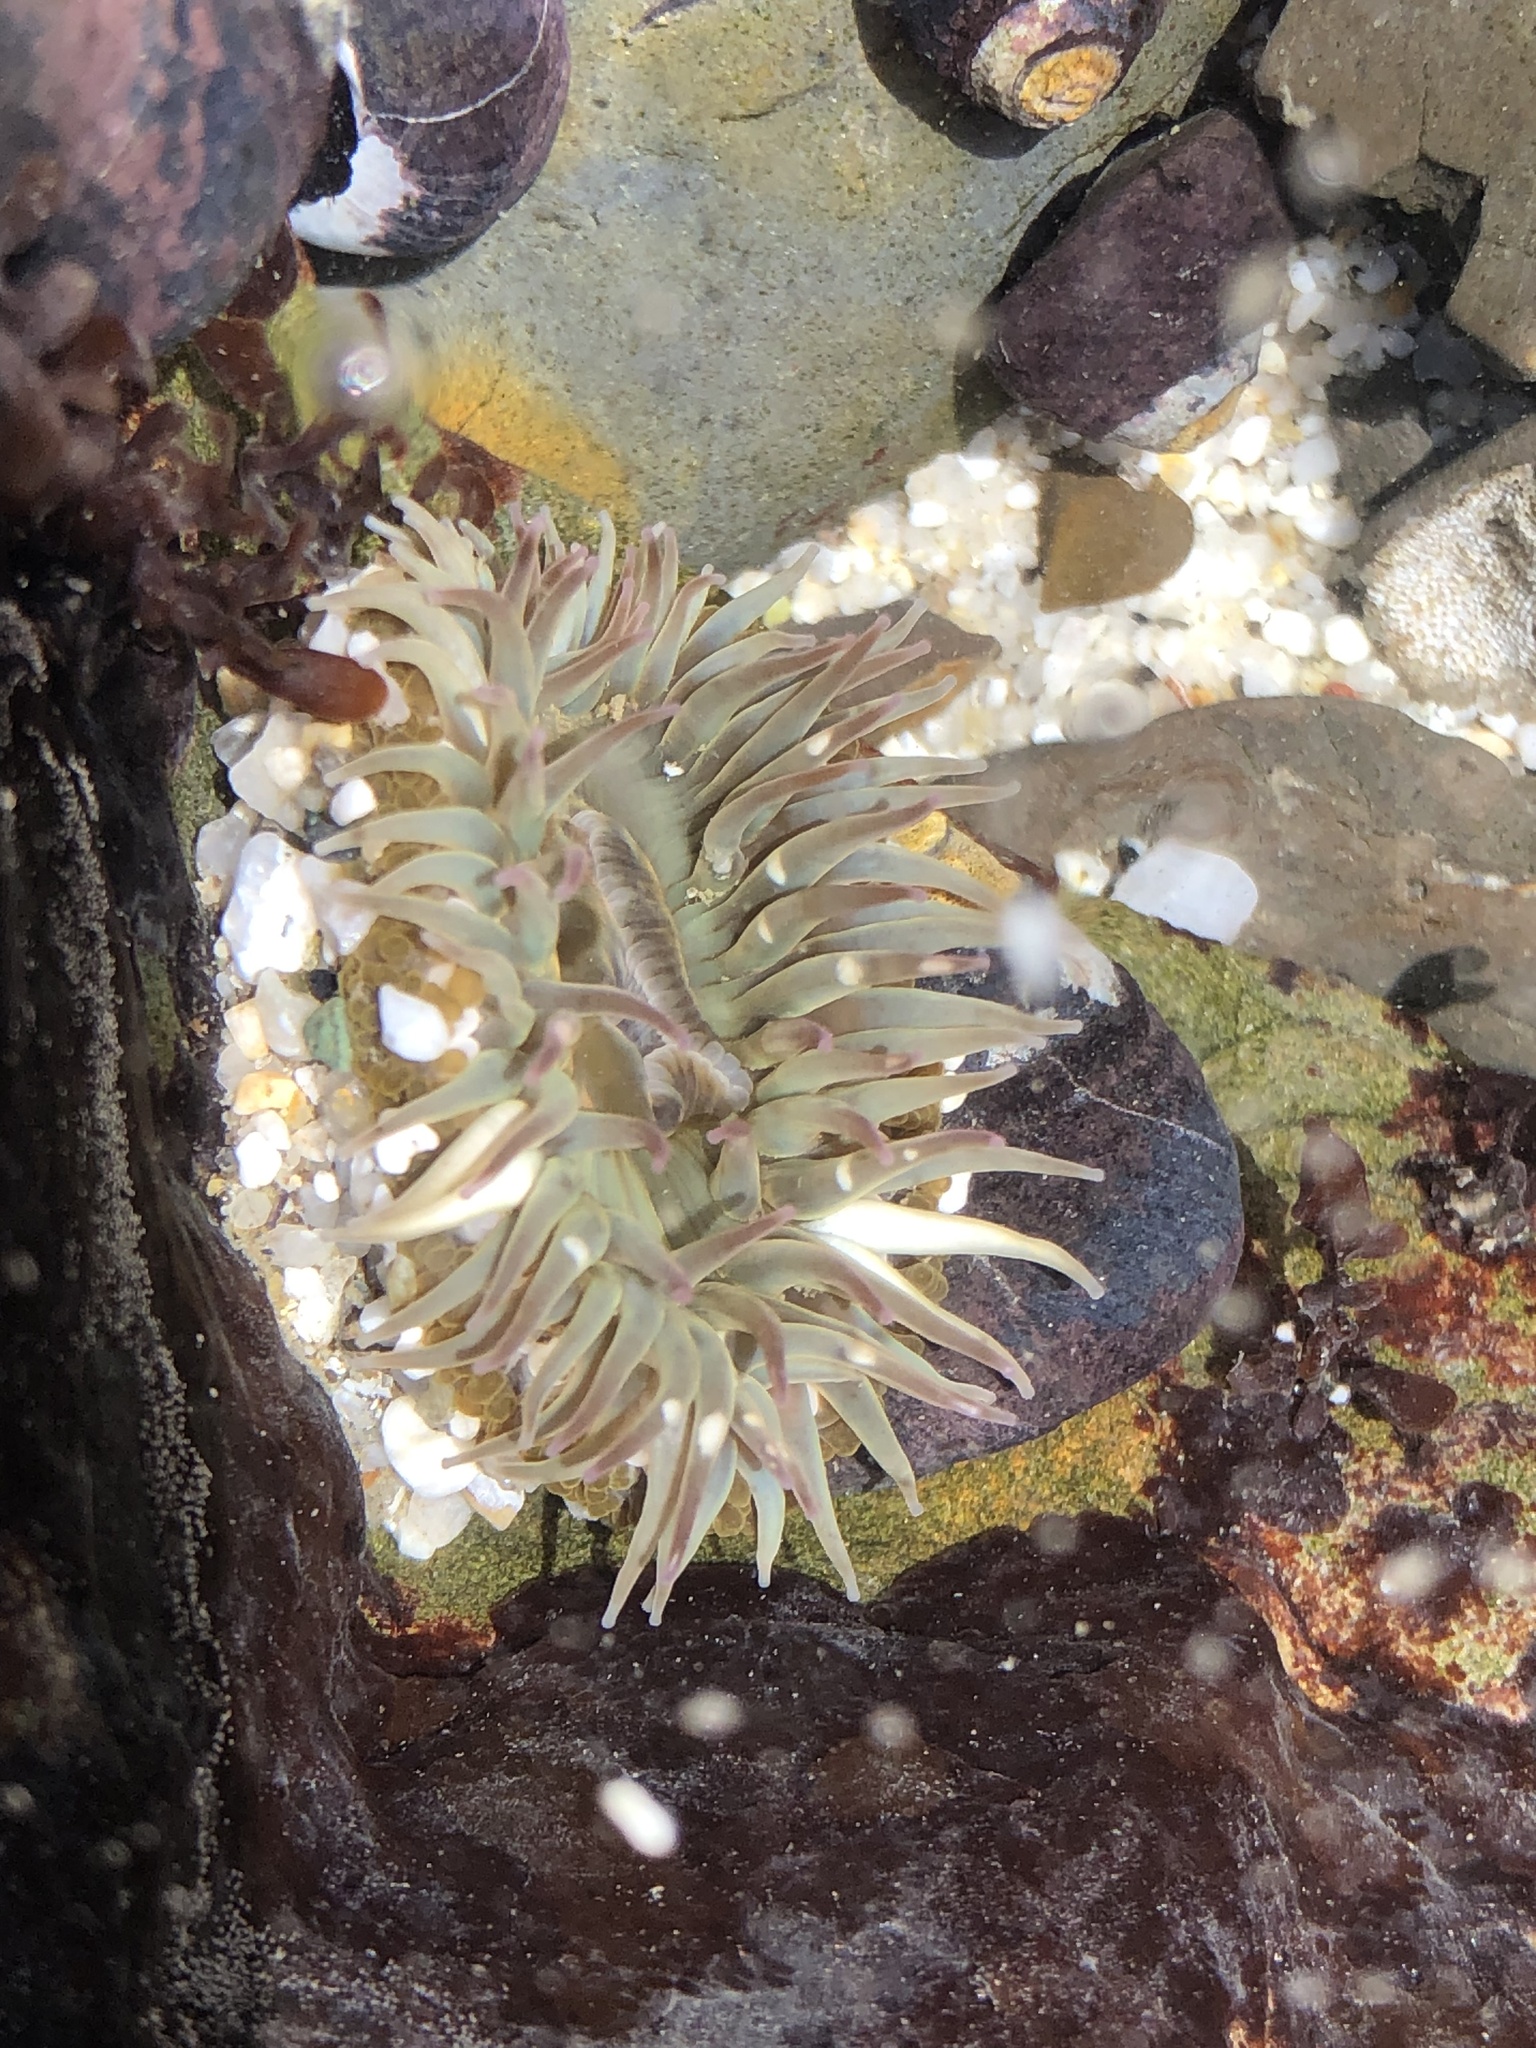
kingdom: Animalia
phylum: Cnidaria
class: Anthozoa
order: Actiniaria
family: Actiniidae
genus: Anthopleura
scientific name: Anthopleura elegantissima
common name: Clonal anemone
